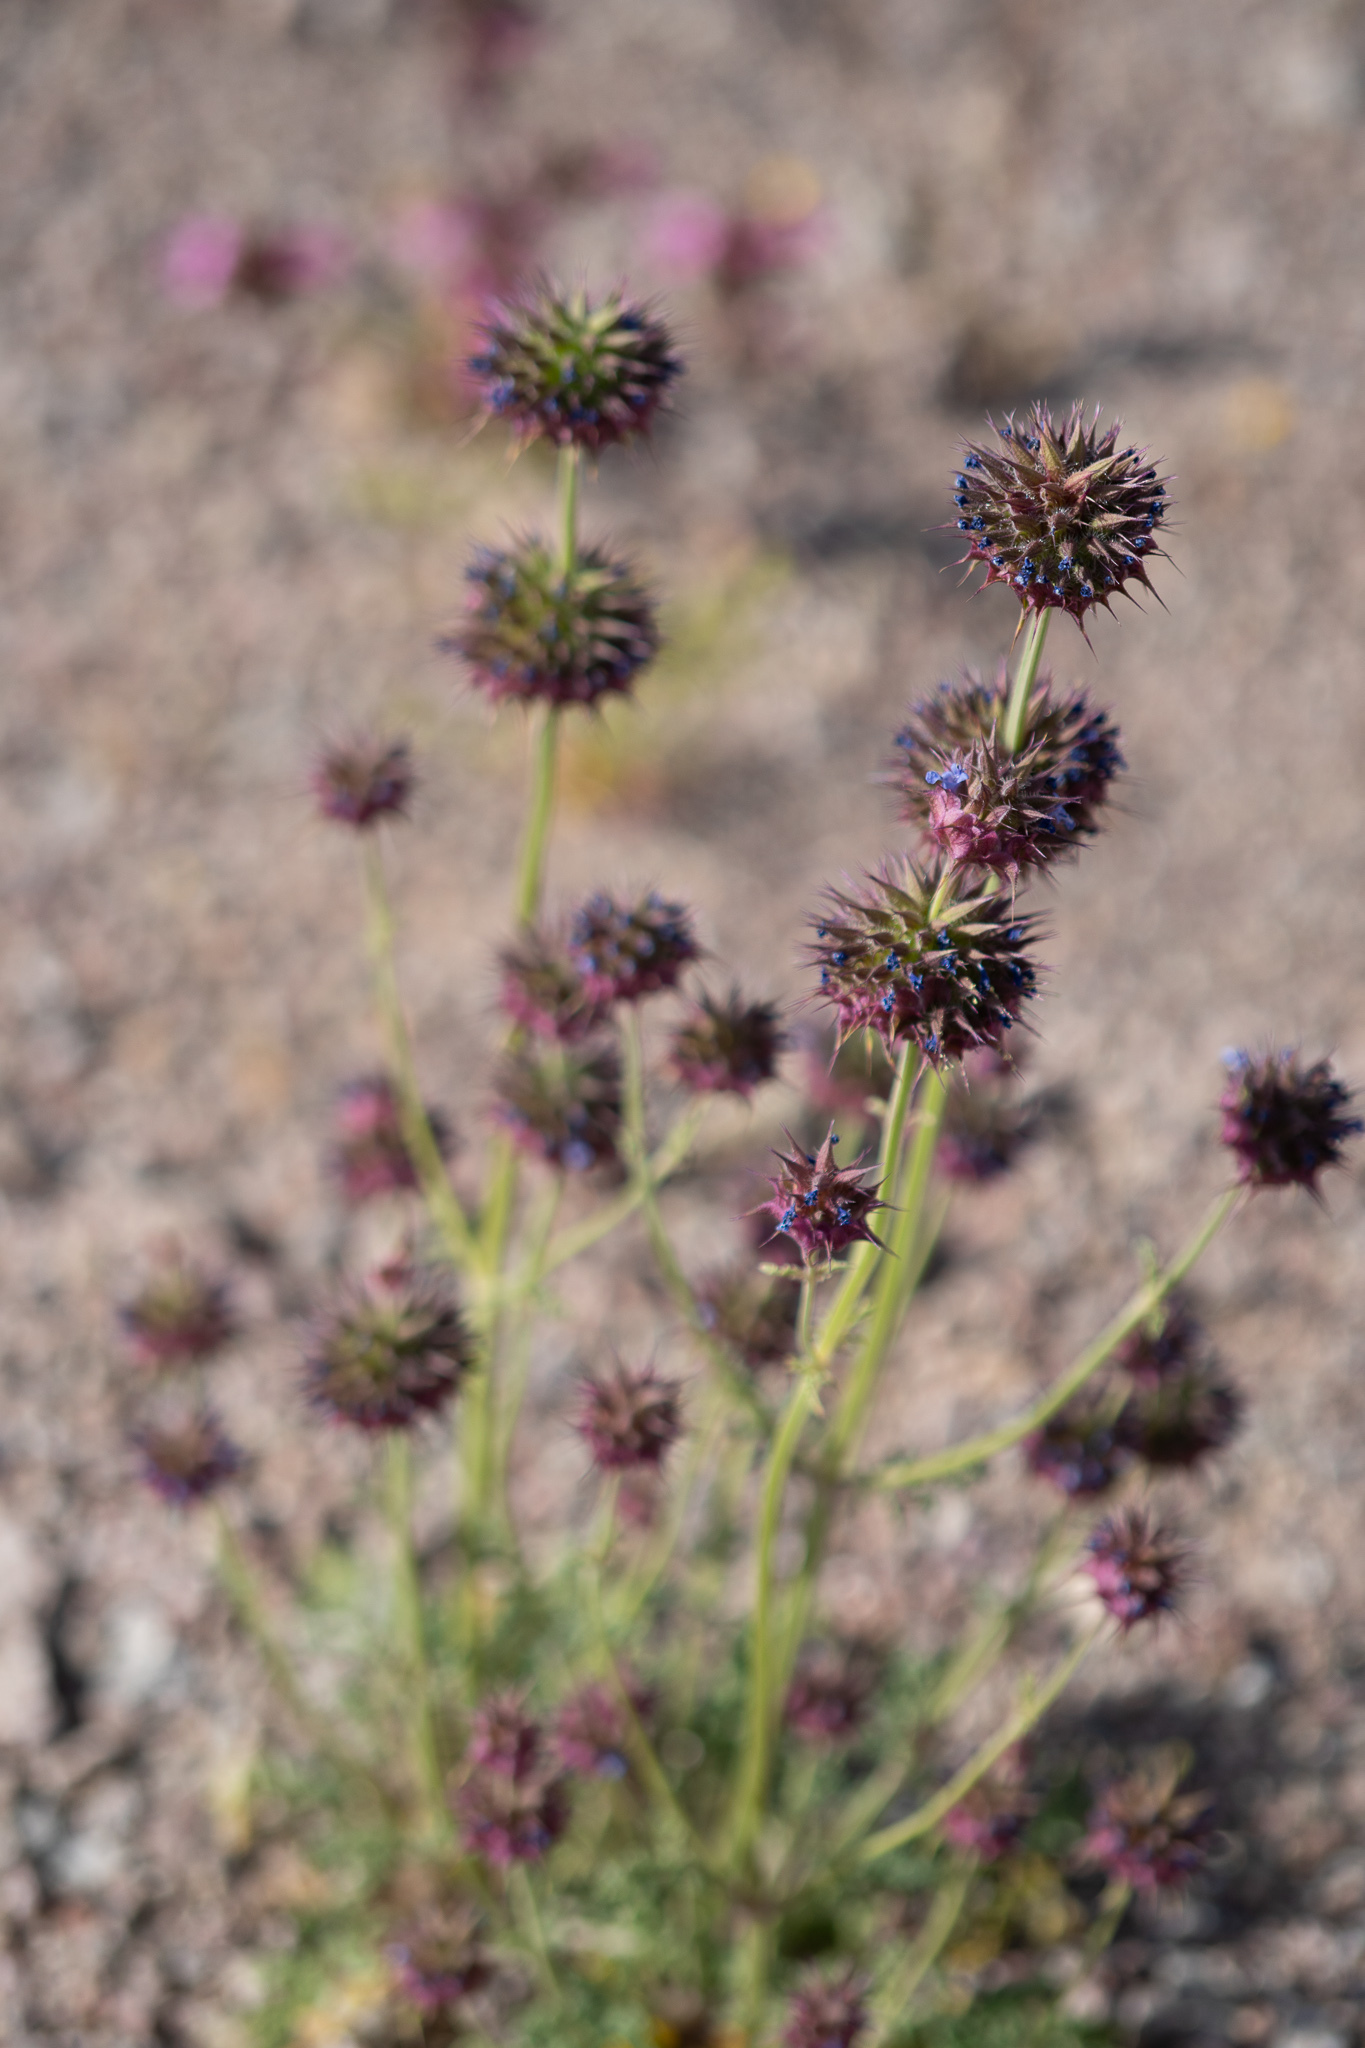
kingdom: Plantae
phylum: Tracheophyta
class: Magnoliopsida
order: Lamiales
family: Lamiaceae
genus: Salvia
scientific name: Salvia columbariae
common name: Chia
